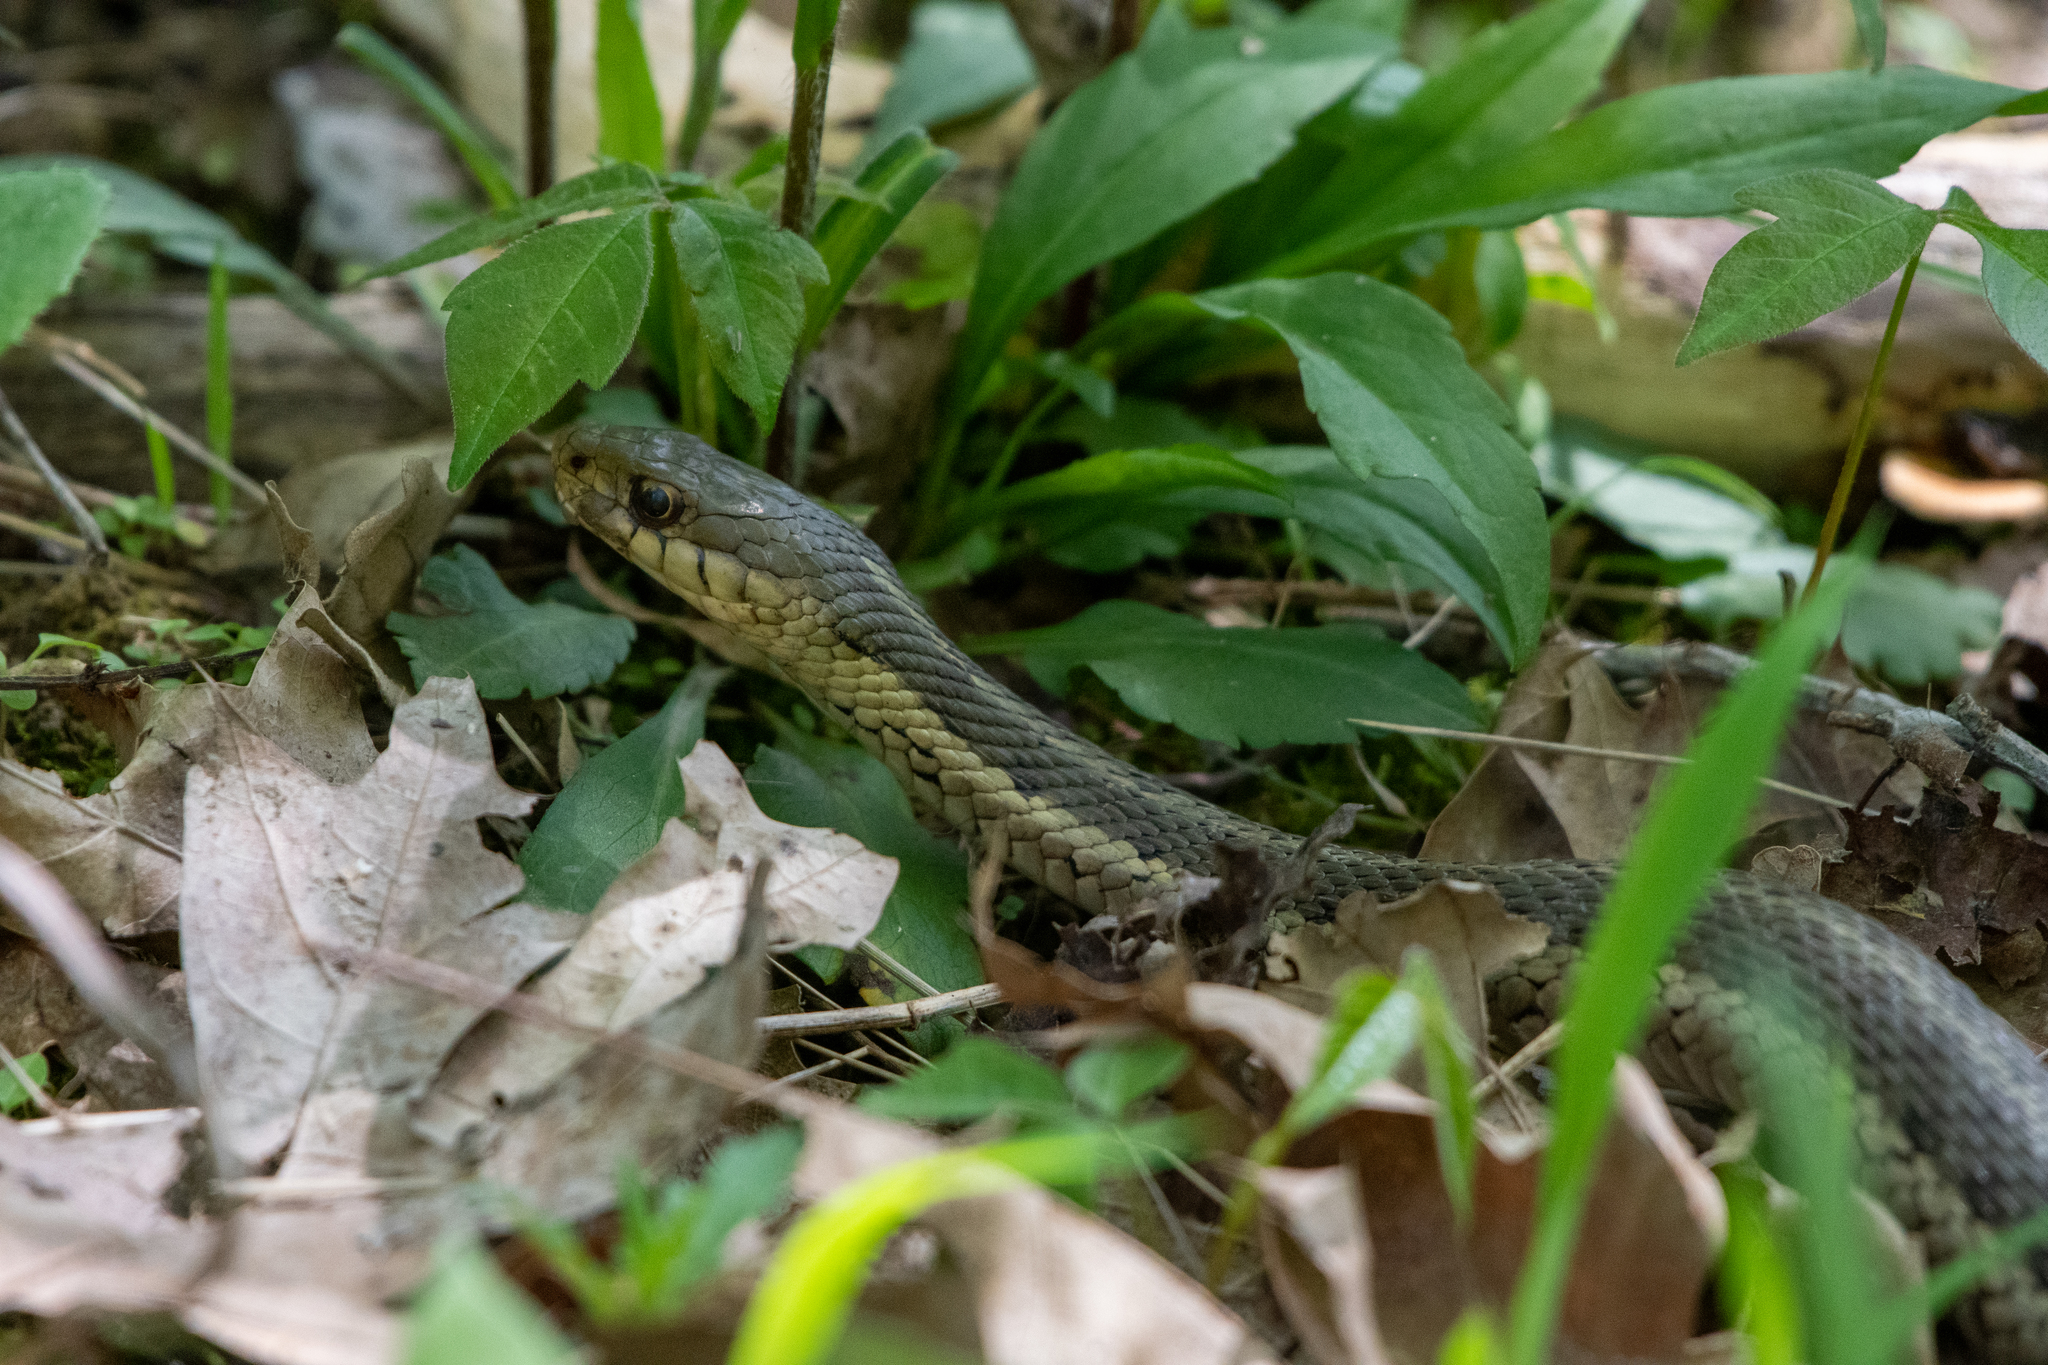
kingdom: Animalia
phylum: Chordata
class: Squamata
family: Colubridae
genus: Thamnophis
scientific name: Thamnophis sirtalis
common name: Common garter snake
